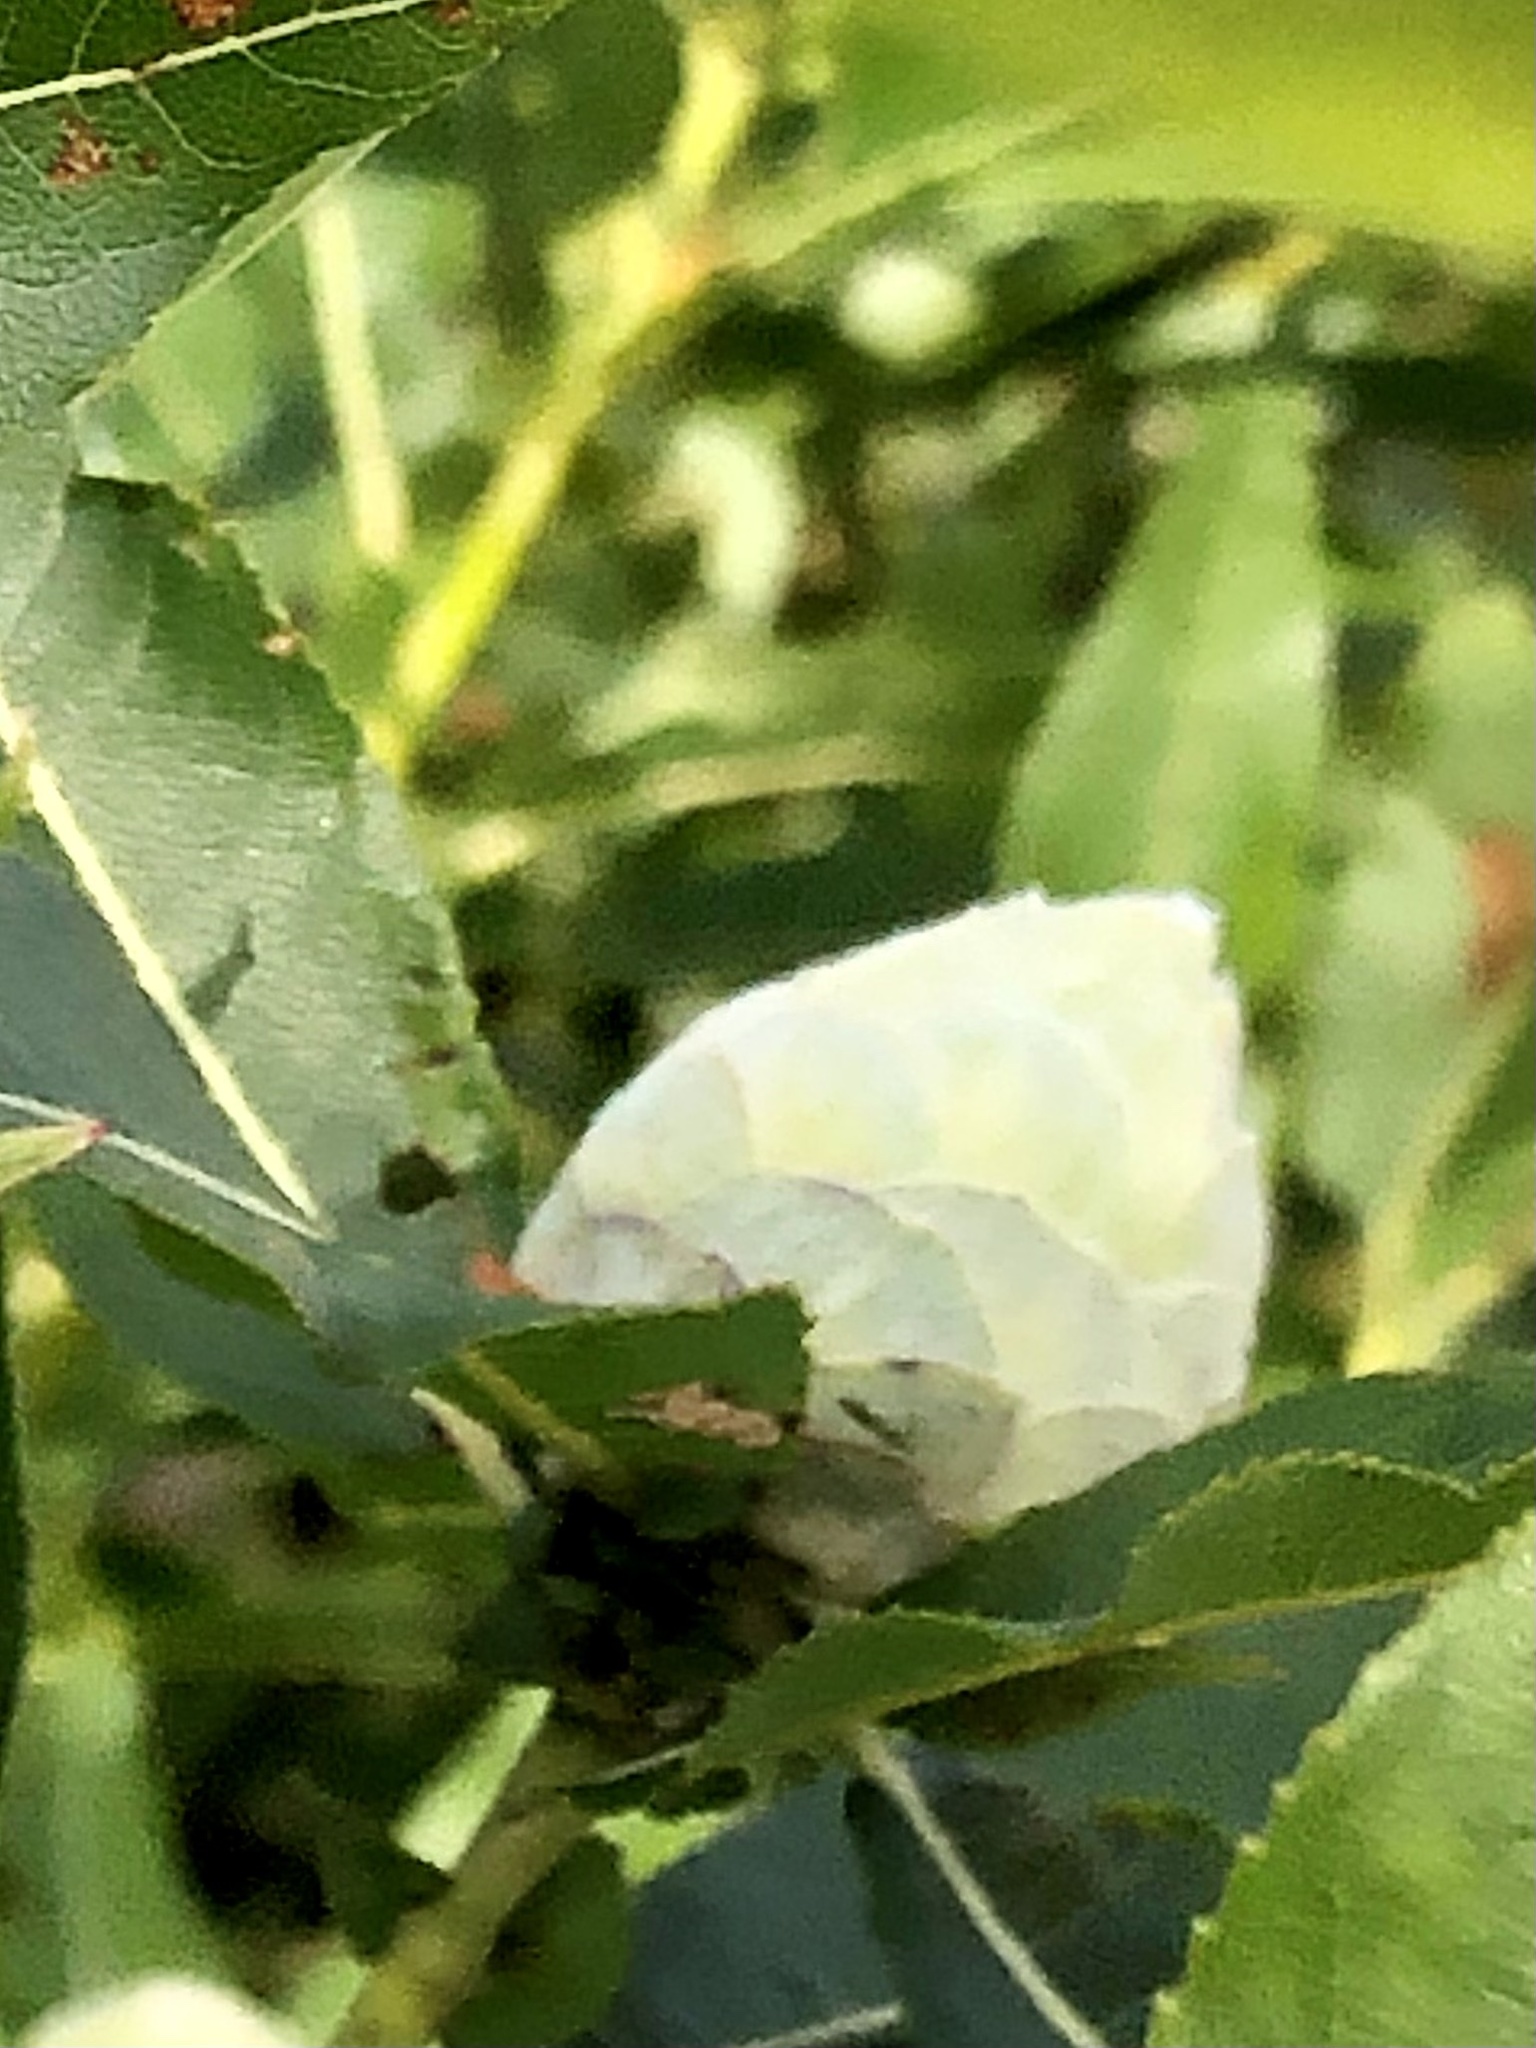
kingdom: Animalia
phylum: Arthropoda
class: Insecta
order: Diptera
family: Cecidomyiidae
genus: Rabdophaga
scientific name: Rabdophaga strobiloides
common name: Willow pinecone gall midge
